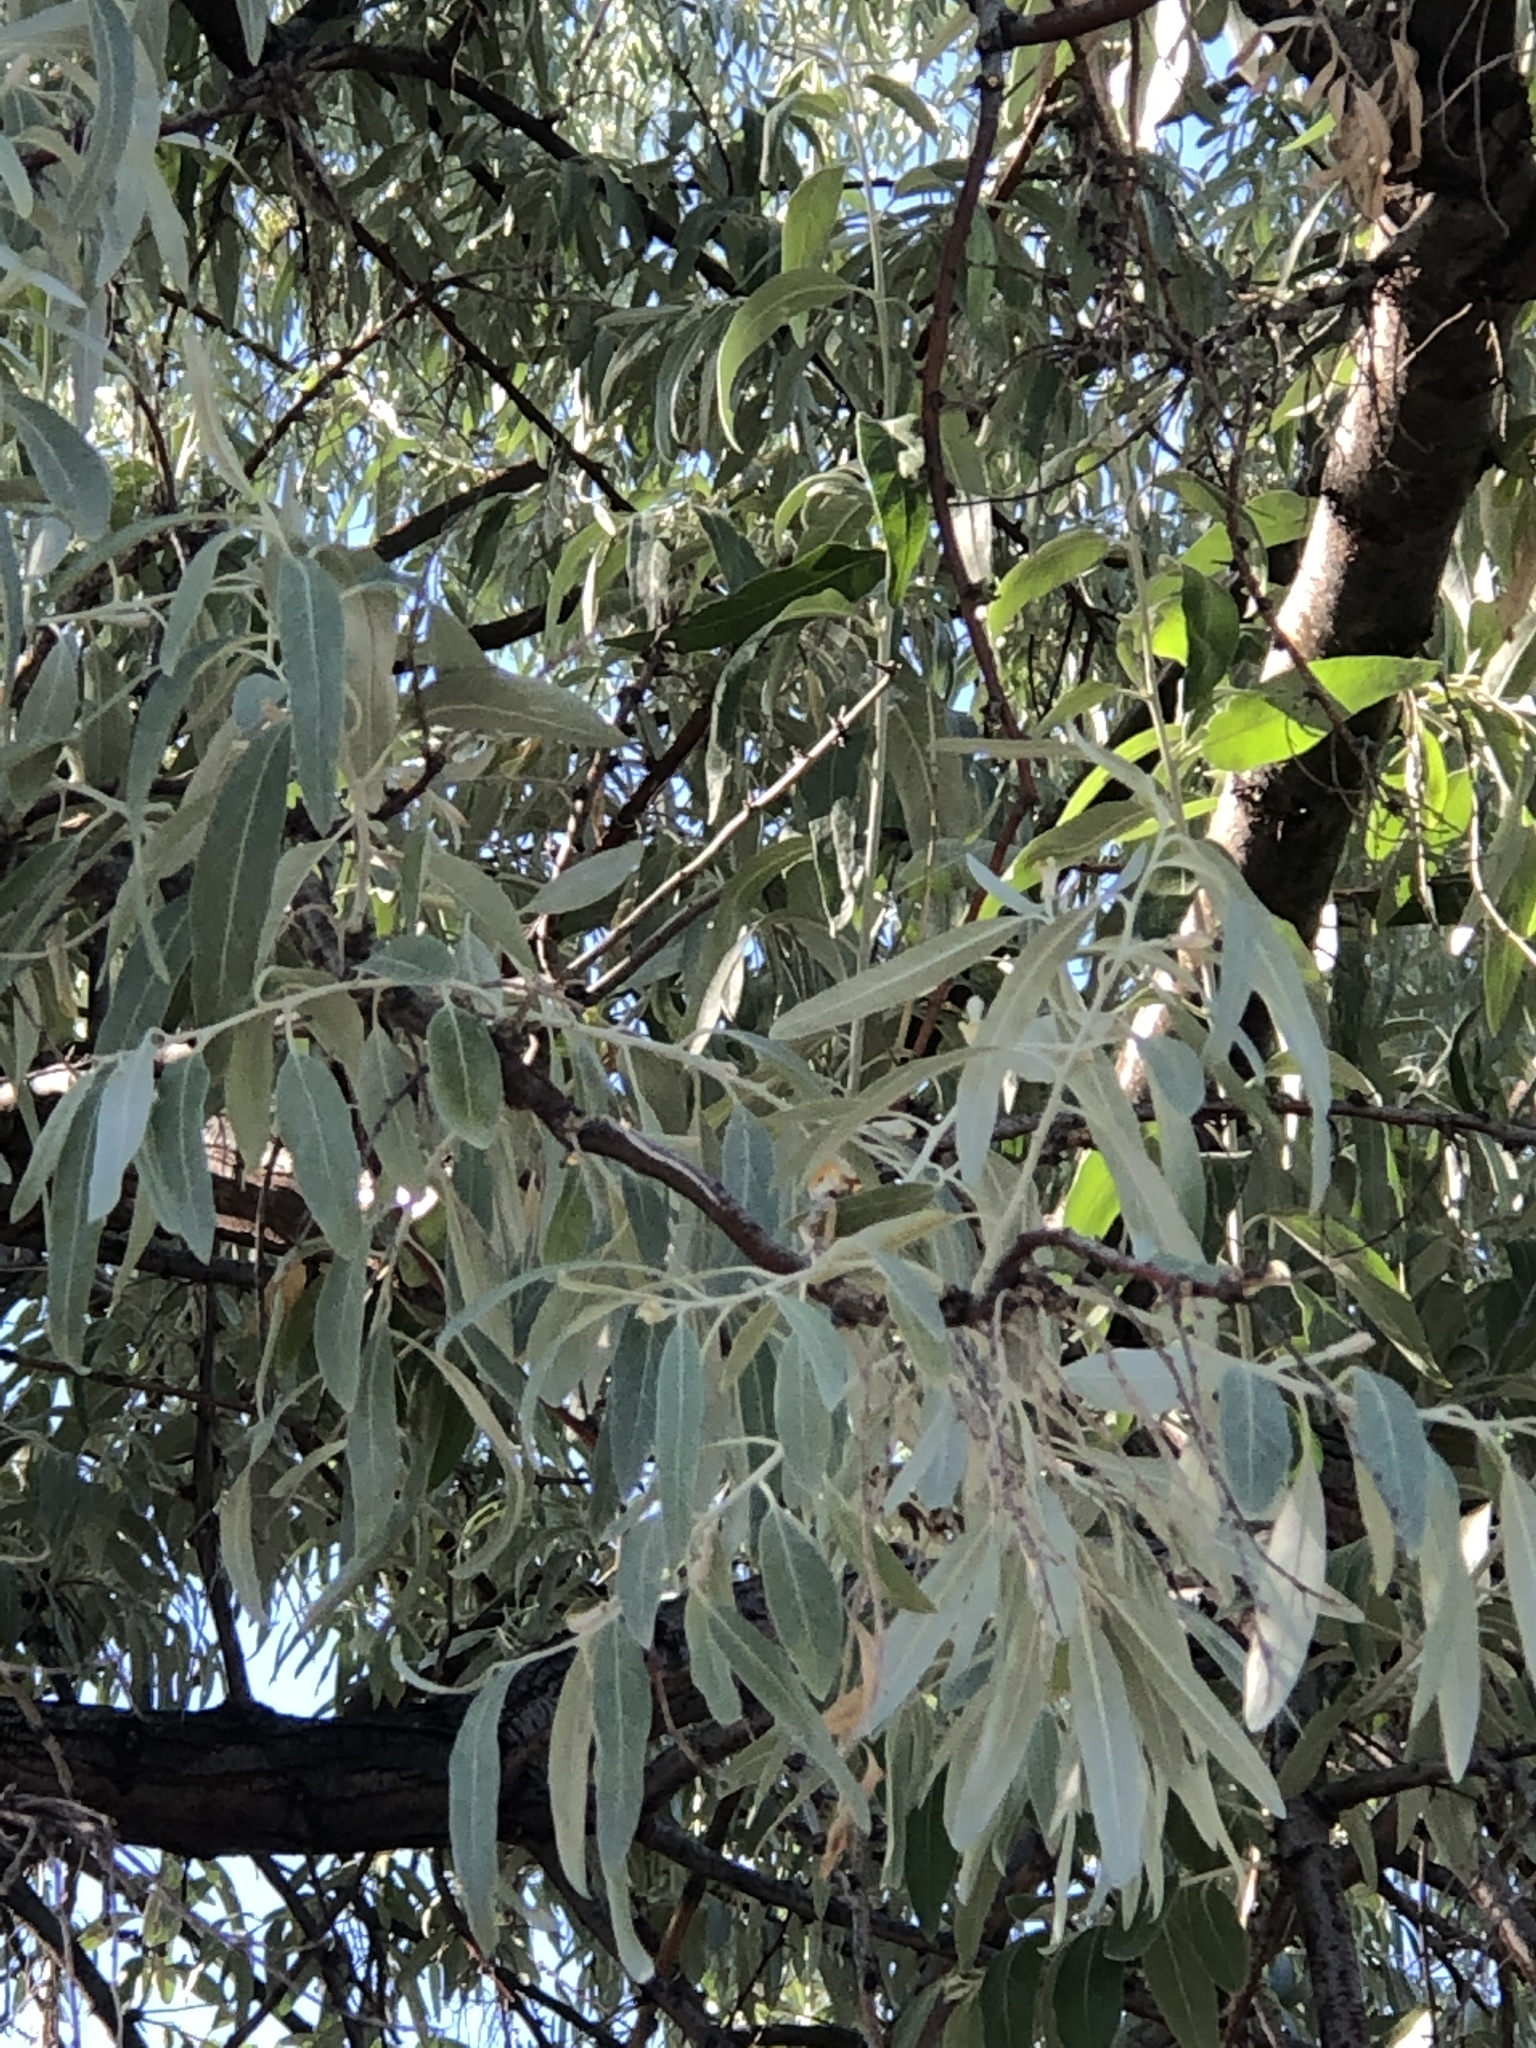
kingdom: Plantae
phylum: Tracheophyta
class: Magnoliopsida
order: Rosales
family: Elaeagnaceae
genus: Elaeagnus
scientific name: Elaeagnus angustifolia
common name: Russian olive
